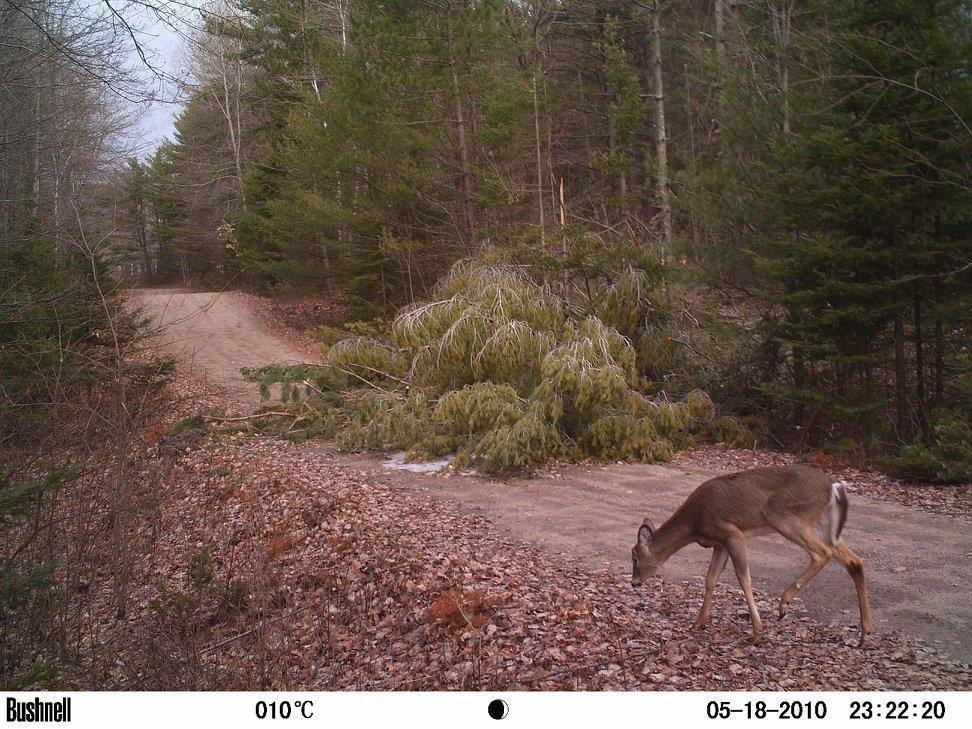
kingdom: Animalia
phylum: Chordata
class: Mammalia
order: Artiodactyla
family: Cervidae
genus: Odocoileus
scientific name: Odocoileus virginianus
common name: White-tailed deer
